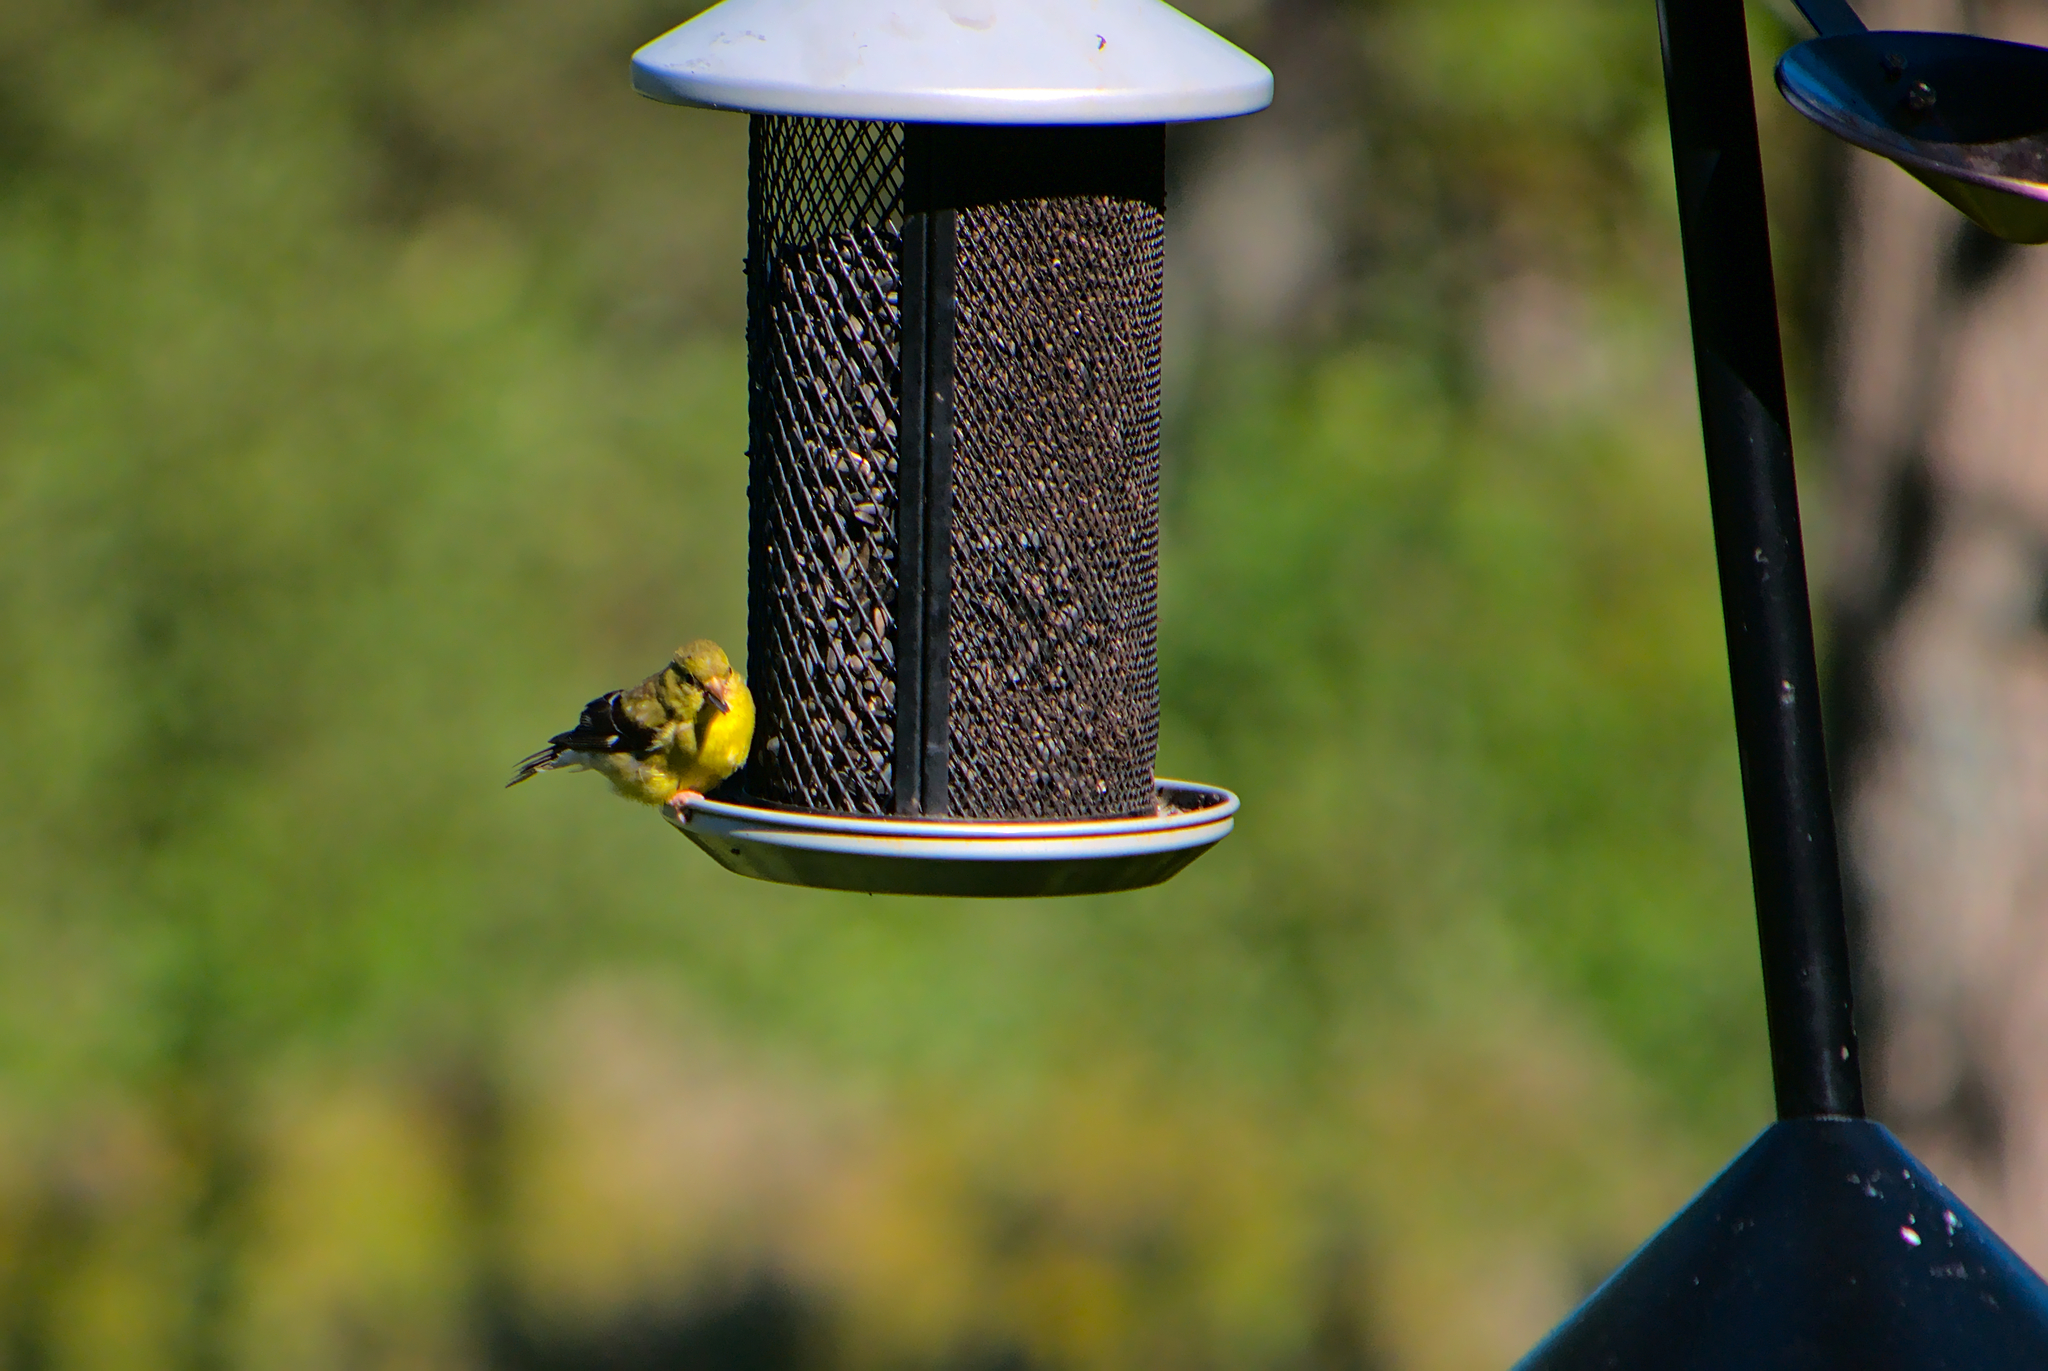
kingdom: Animalia
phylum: Chordata
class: Aves
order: Passeriformes
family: Fringillidae
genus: Spinus
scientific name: Spinus tristis
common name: American goldfinch
